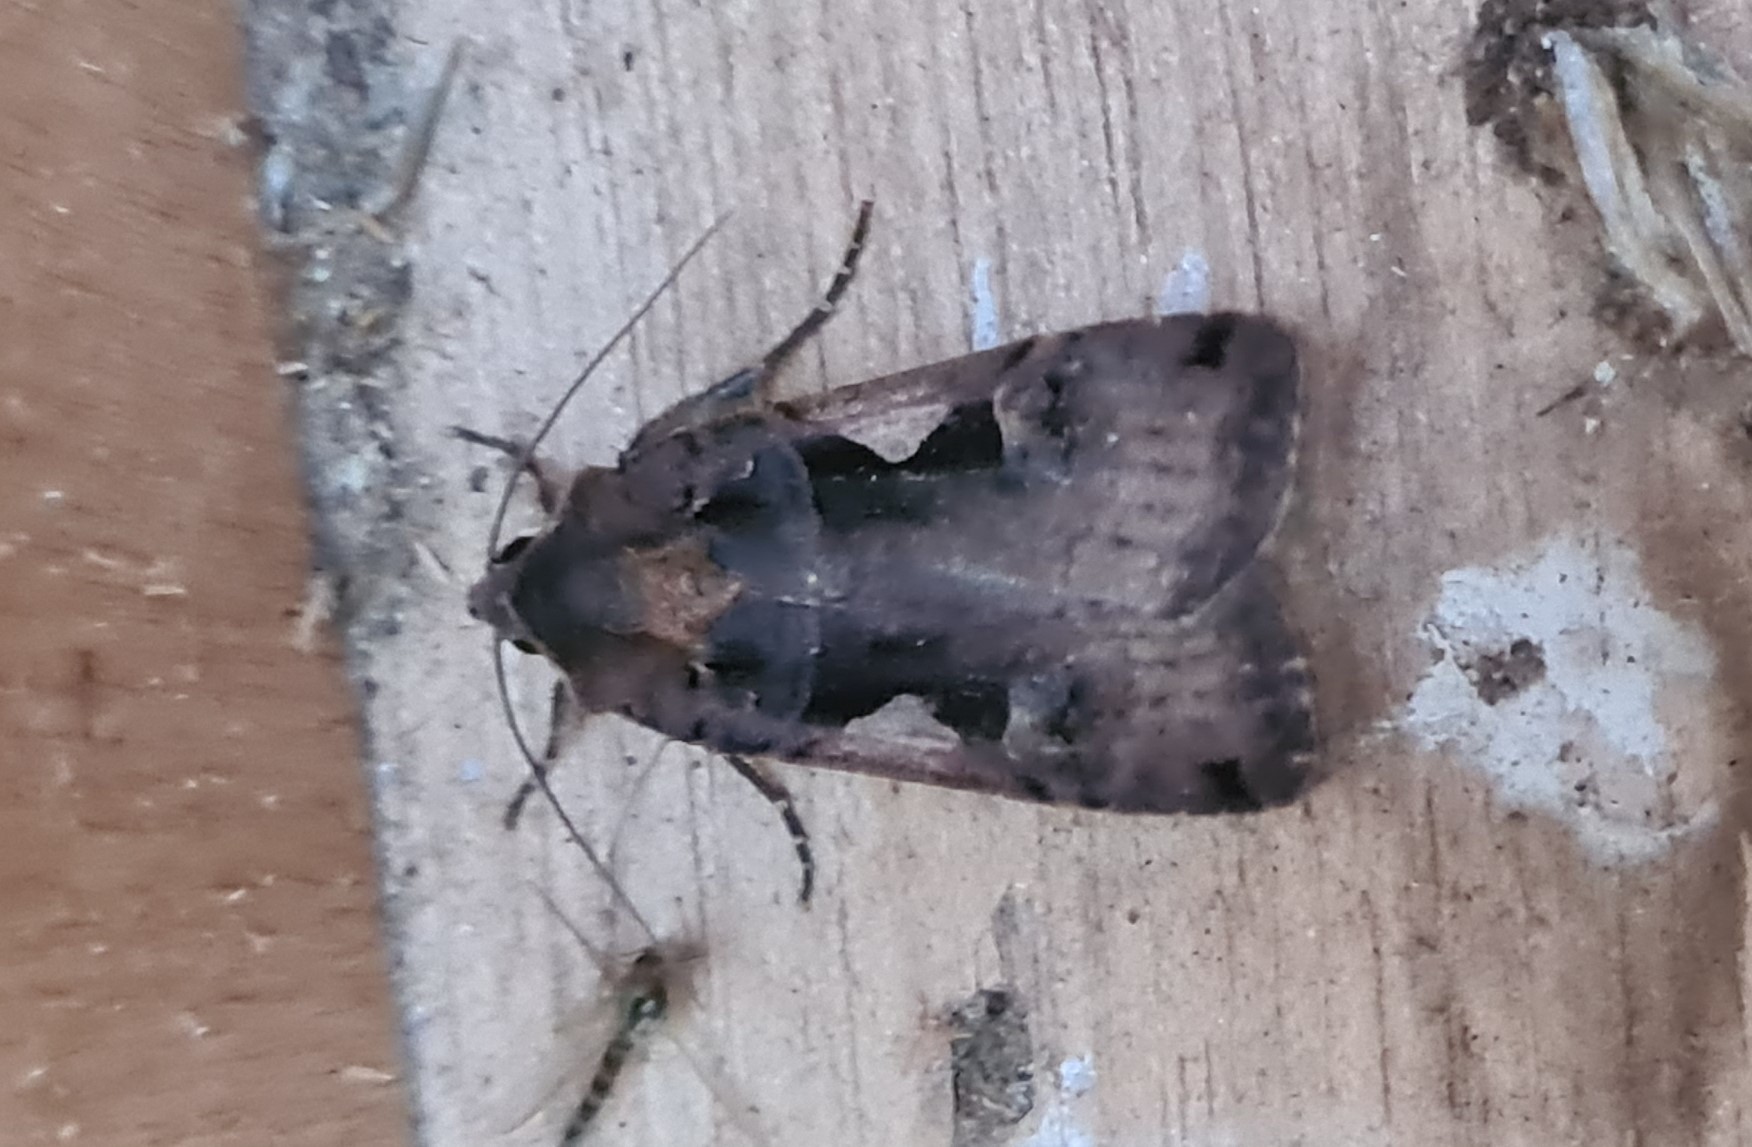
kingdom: Animalia
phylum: Arthropoda
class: Insecta
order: Lepidoptera
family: Noctuidae
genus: Xestia
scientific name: Xestia c-nigrum
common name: Setaceous hebrew character
